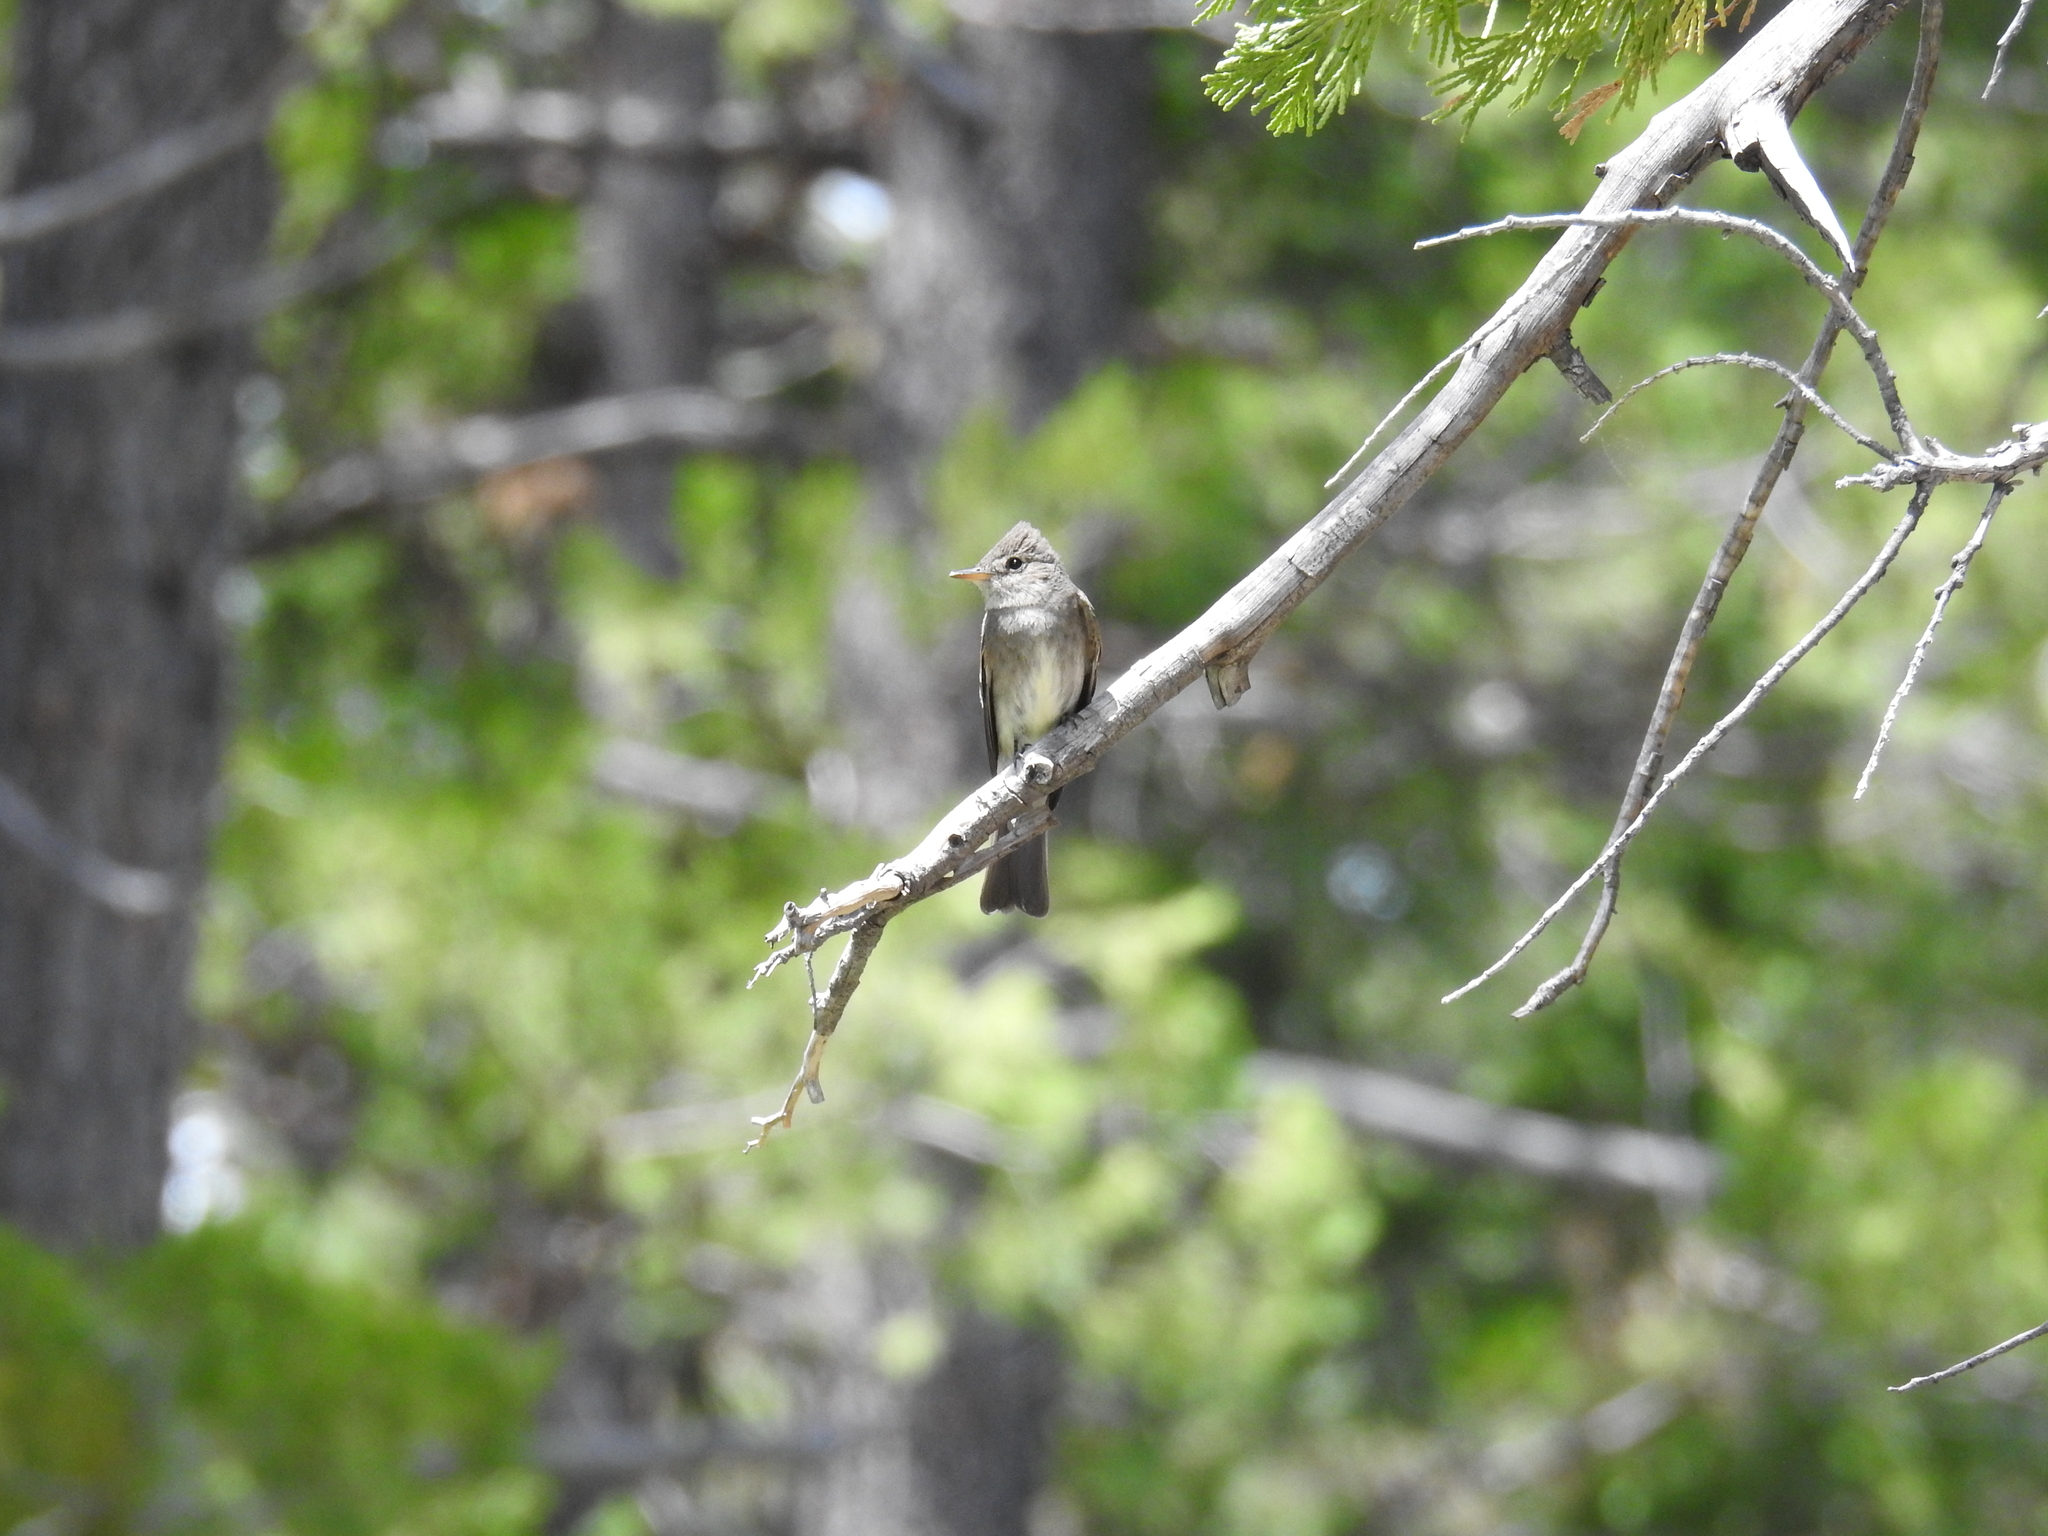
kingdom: Animalia
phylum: Chordata
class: Aves
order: Passeriformes
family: Tyrannidae
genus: Contopus
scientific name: Contopus sordidulus
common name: Western wood-pewee
